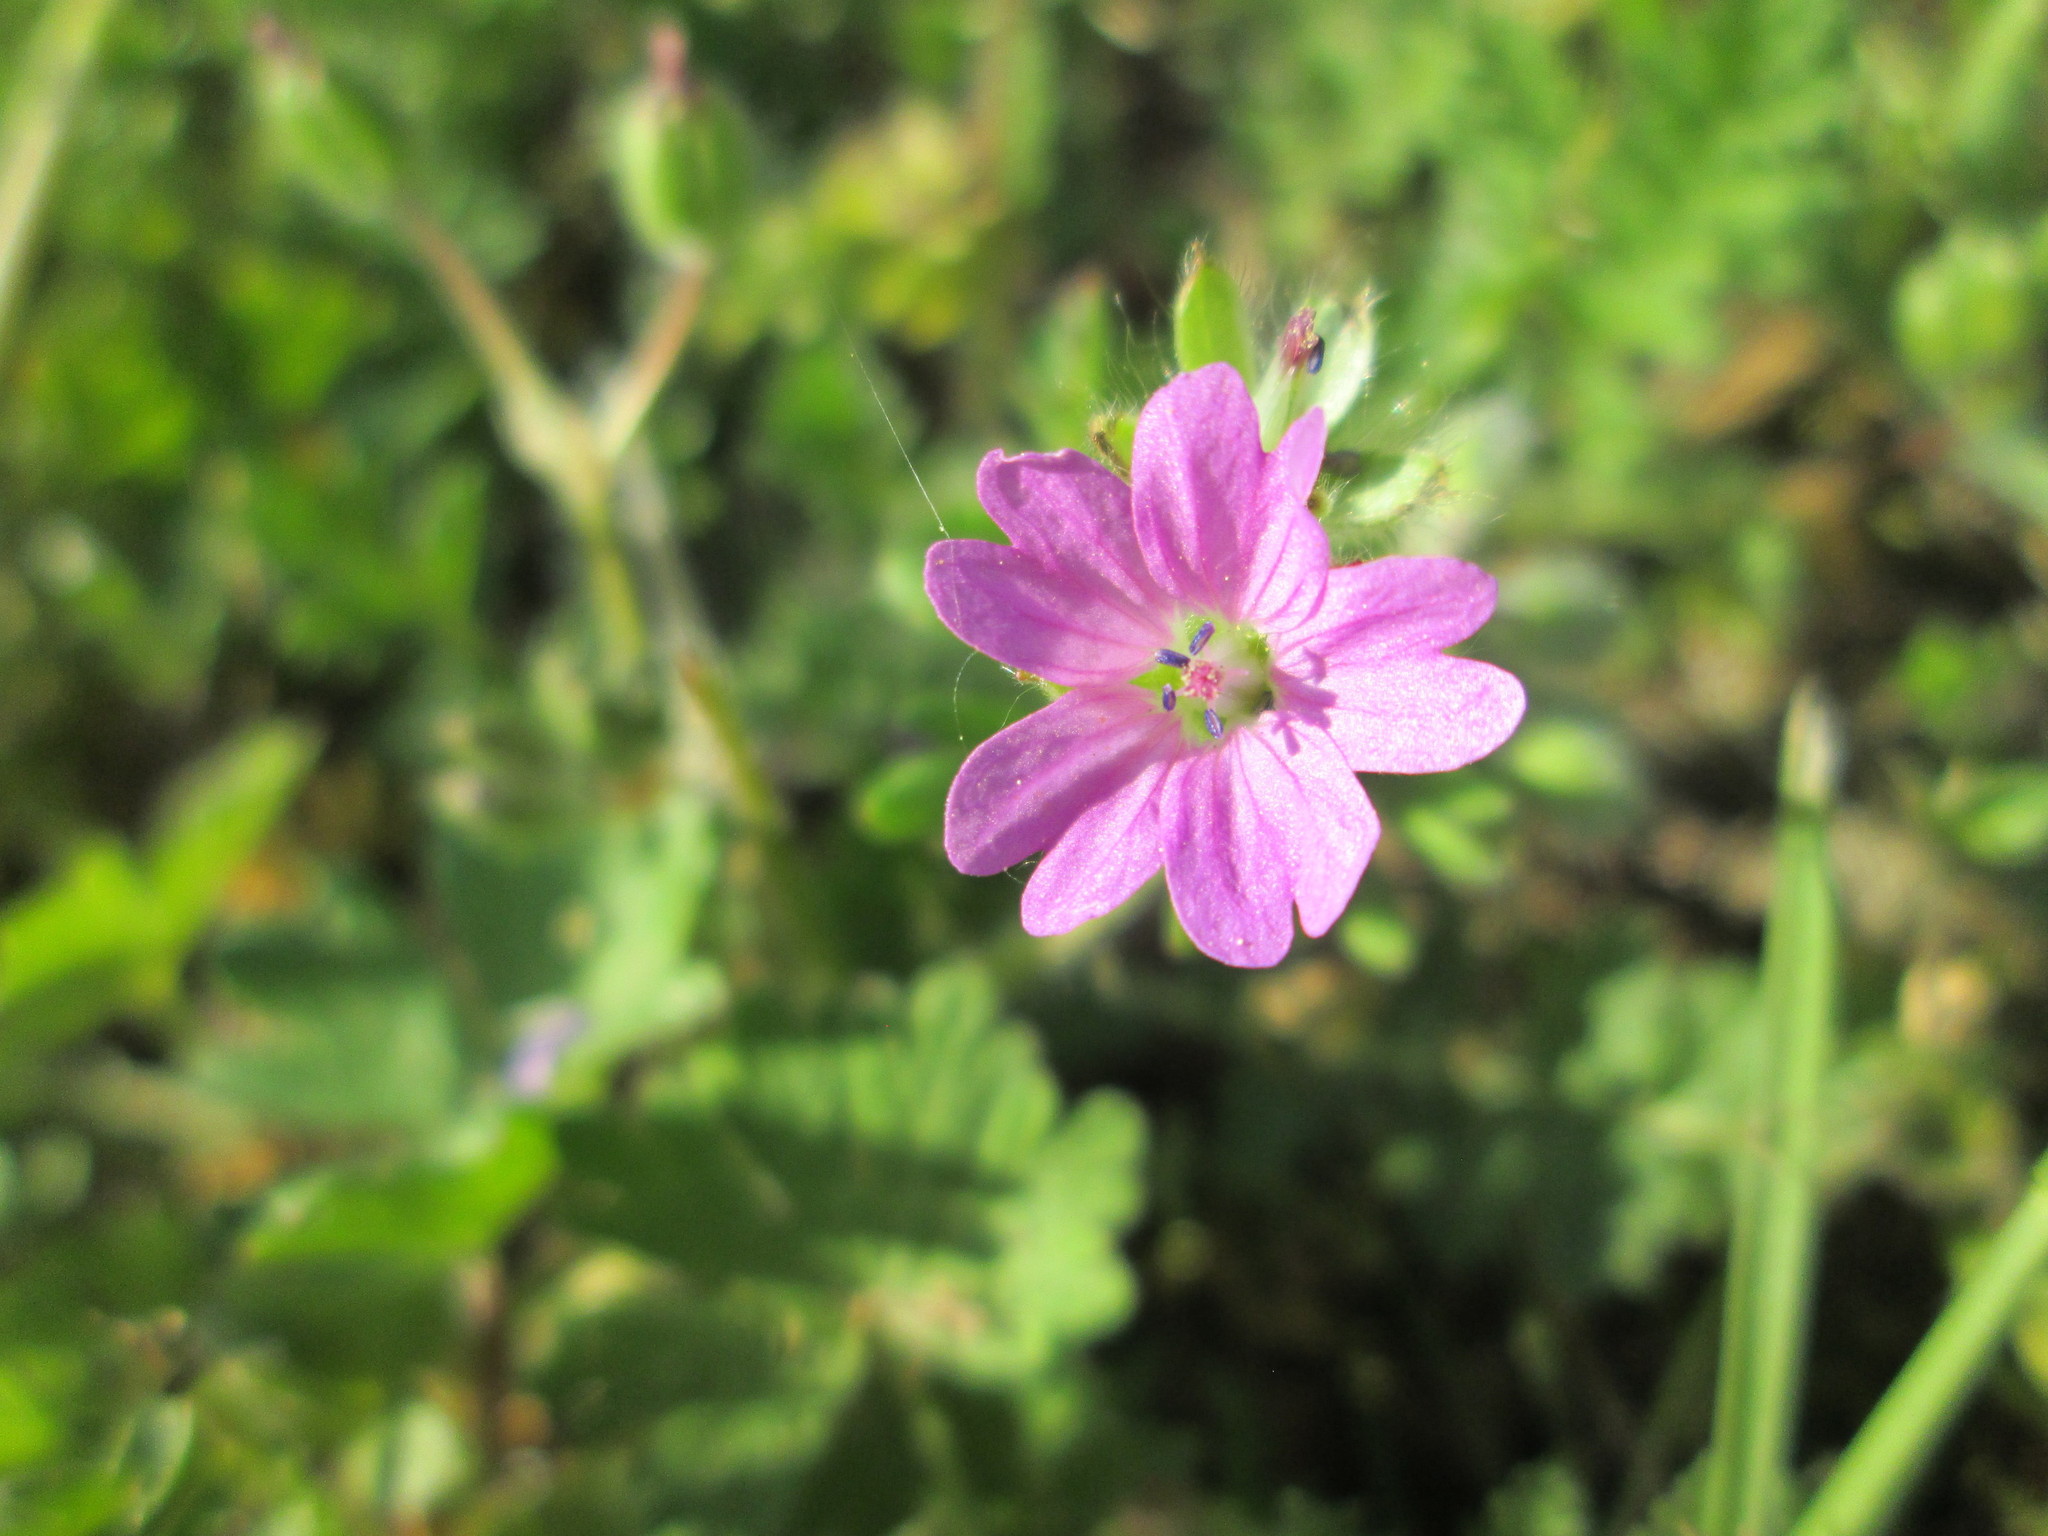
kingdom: Plantae
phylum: Tracheophyta
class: Magnoliopsida
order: Geraniales
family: Geraniaceae
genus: Geranium
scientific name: Geranium molle
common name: Dove's-foot crane's-bill
